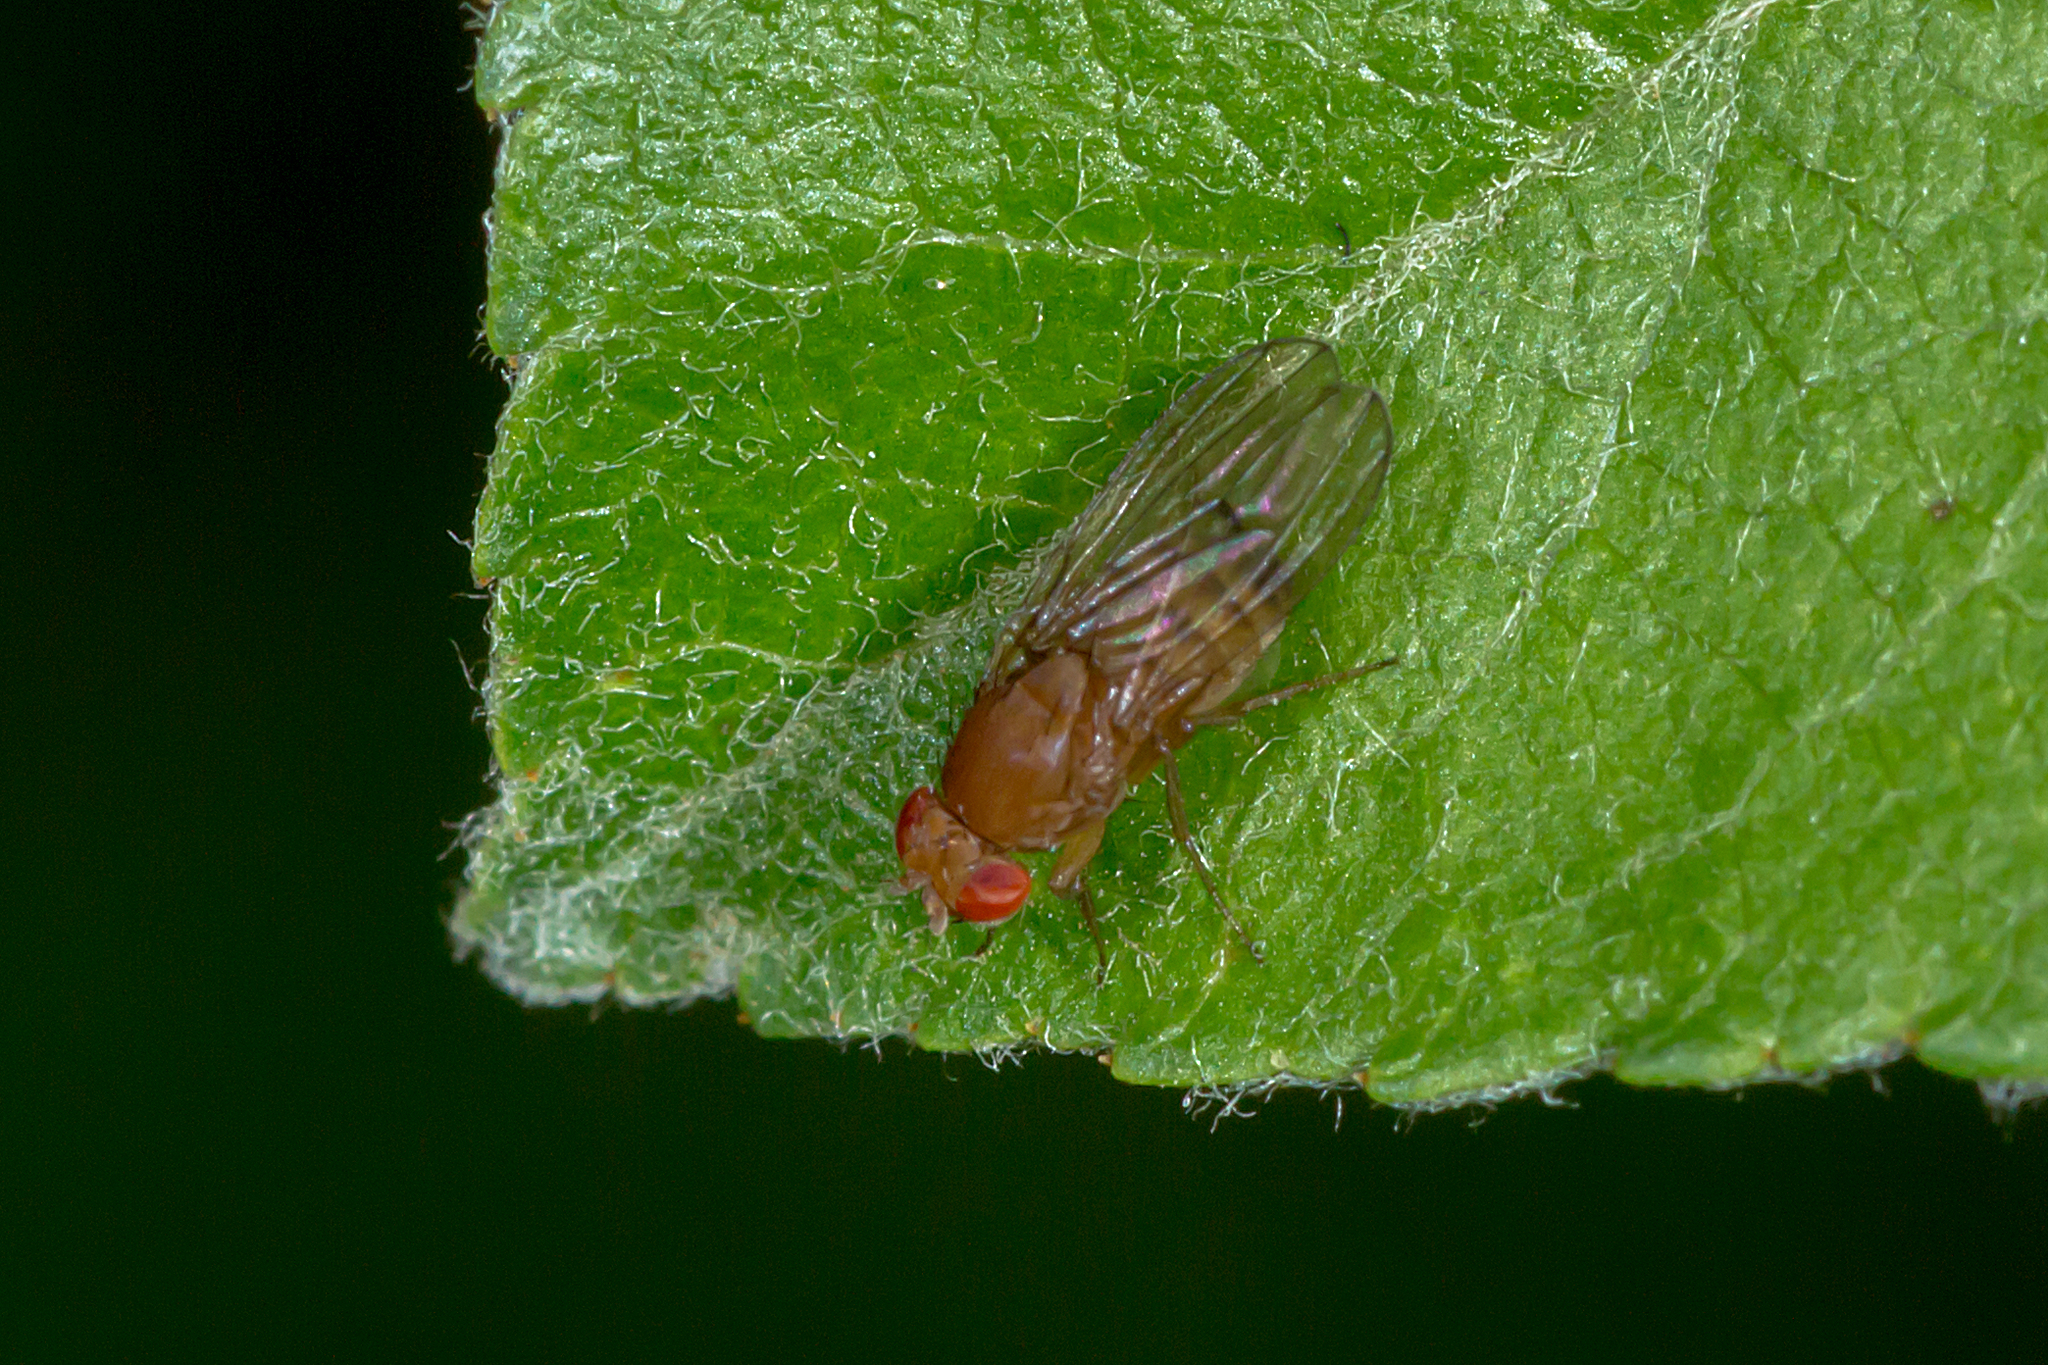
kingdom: Animalia
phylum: Arthropoda
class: Insecta
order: Diptera
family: Drosophilidae
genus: Drosophila
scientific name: Drosophila immigrans
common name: Pomace fly
